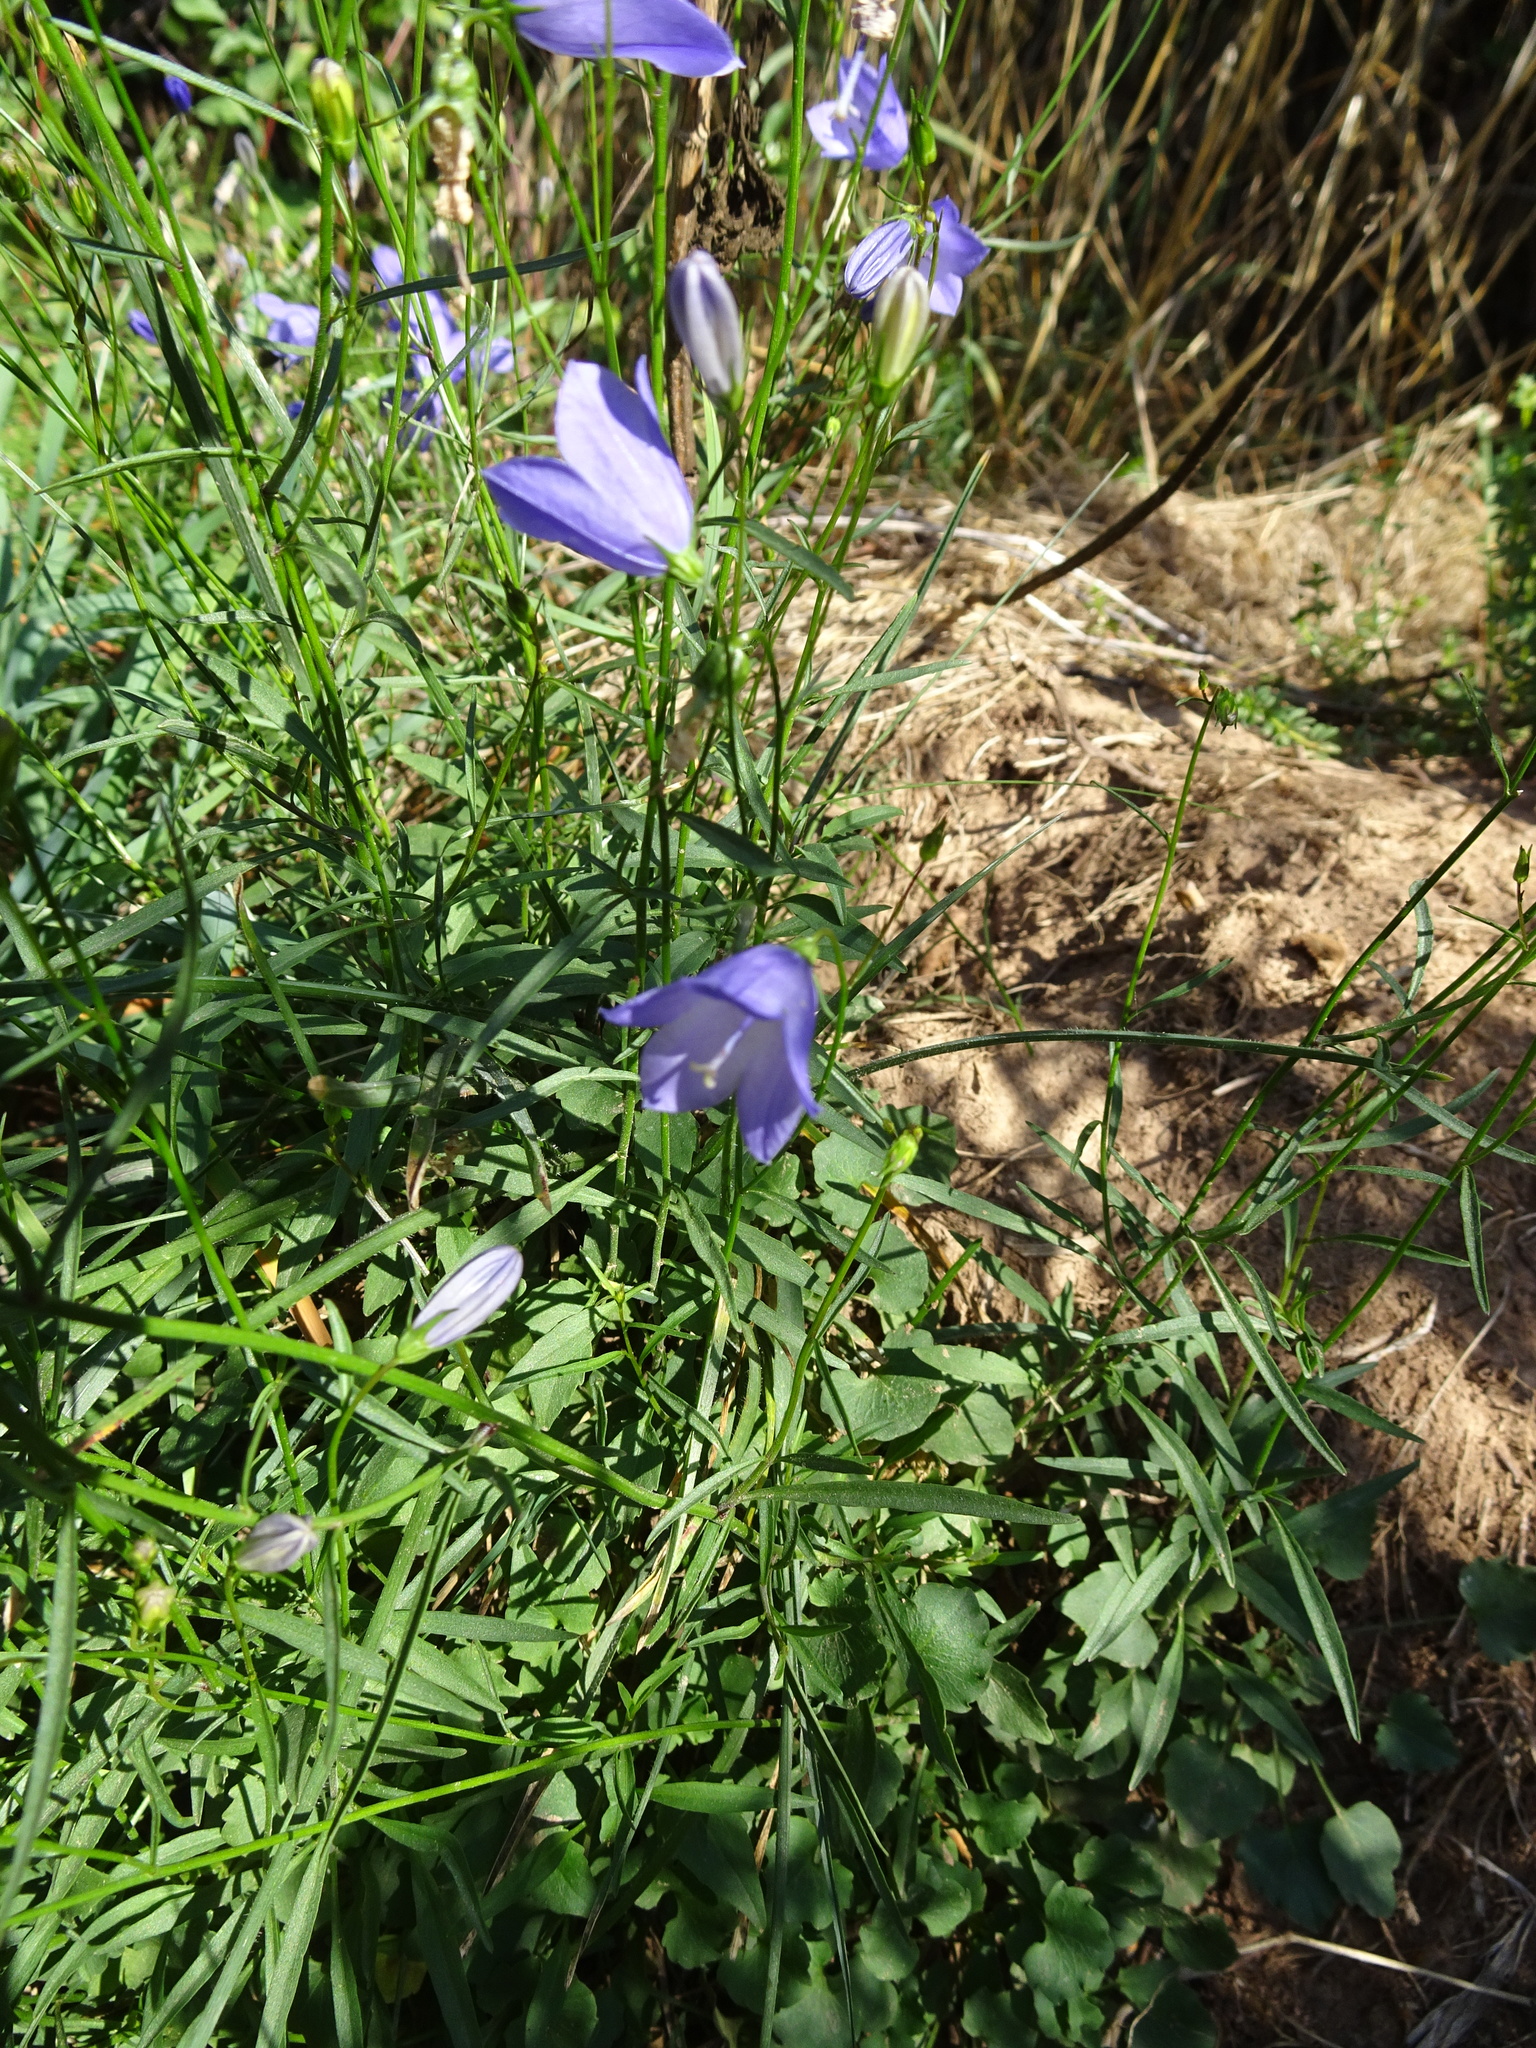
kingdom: Plantae
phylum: Tracheophyta
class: Magnoliopsida
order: Asterales
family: Campanulaceae
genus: Campanula
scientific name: Campanula rotundifolia
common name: Harebell
